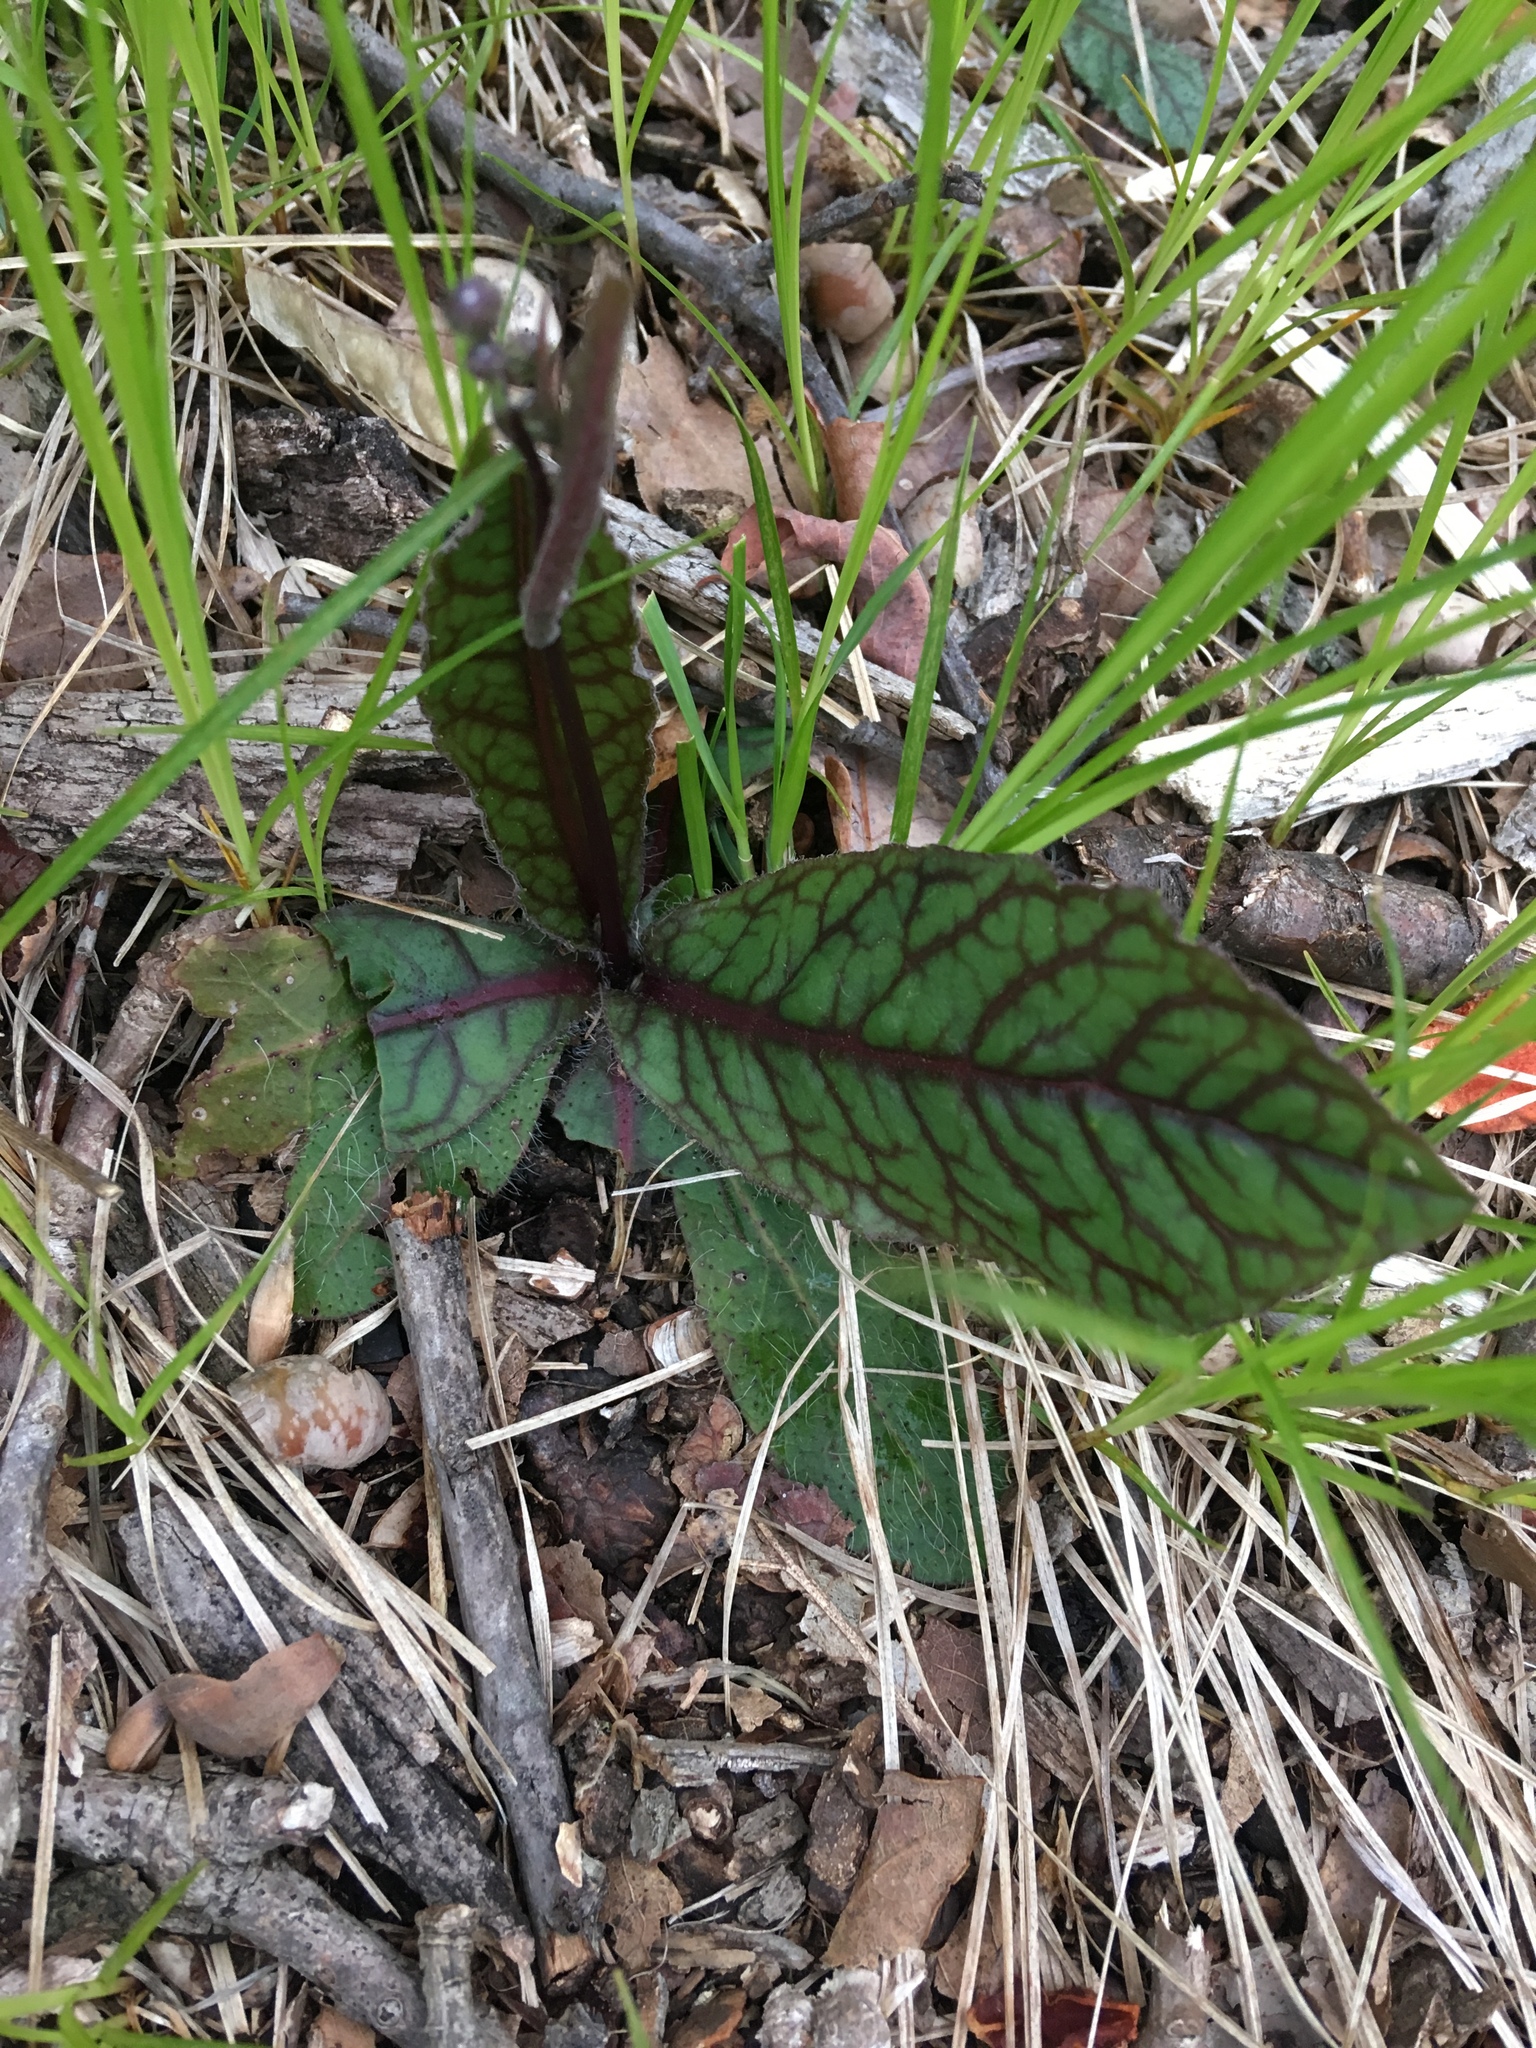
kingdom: Plantae
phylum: Tracheophyta
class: Magnoliopsida
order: Asterales
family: Asteraceae
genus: Hieracium
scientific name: Hieracium venosum
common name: Rattlesnake hawkweed
